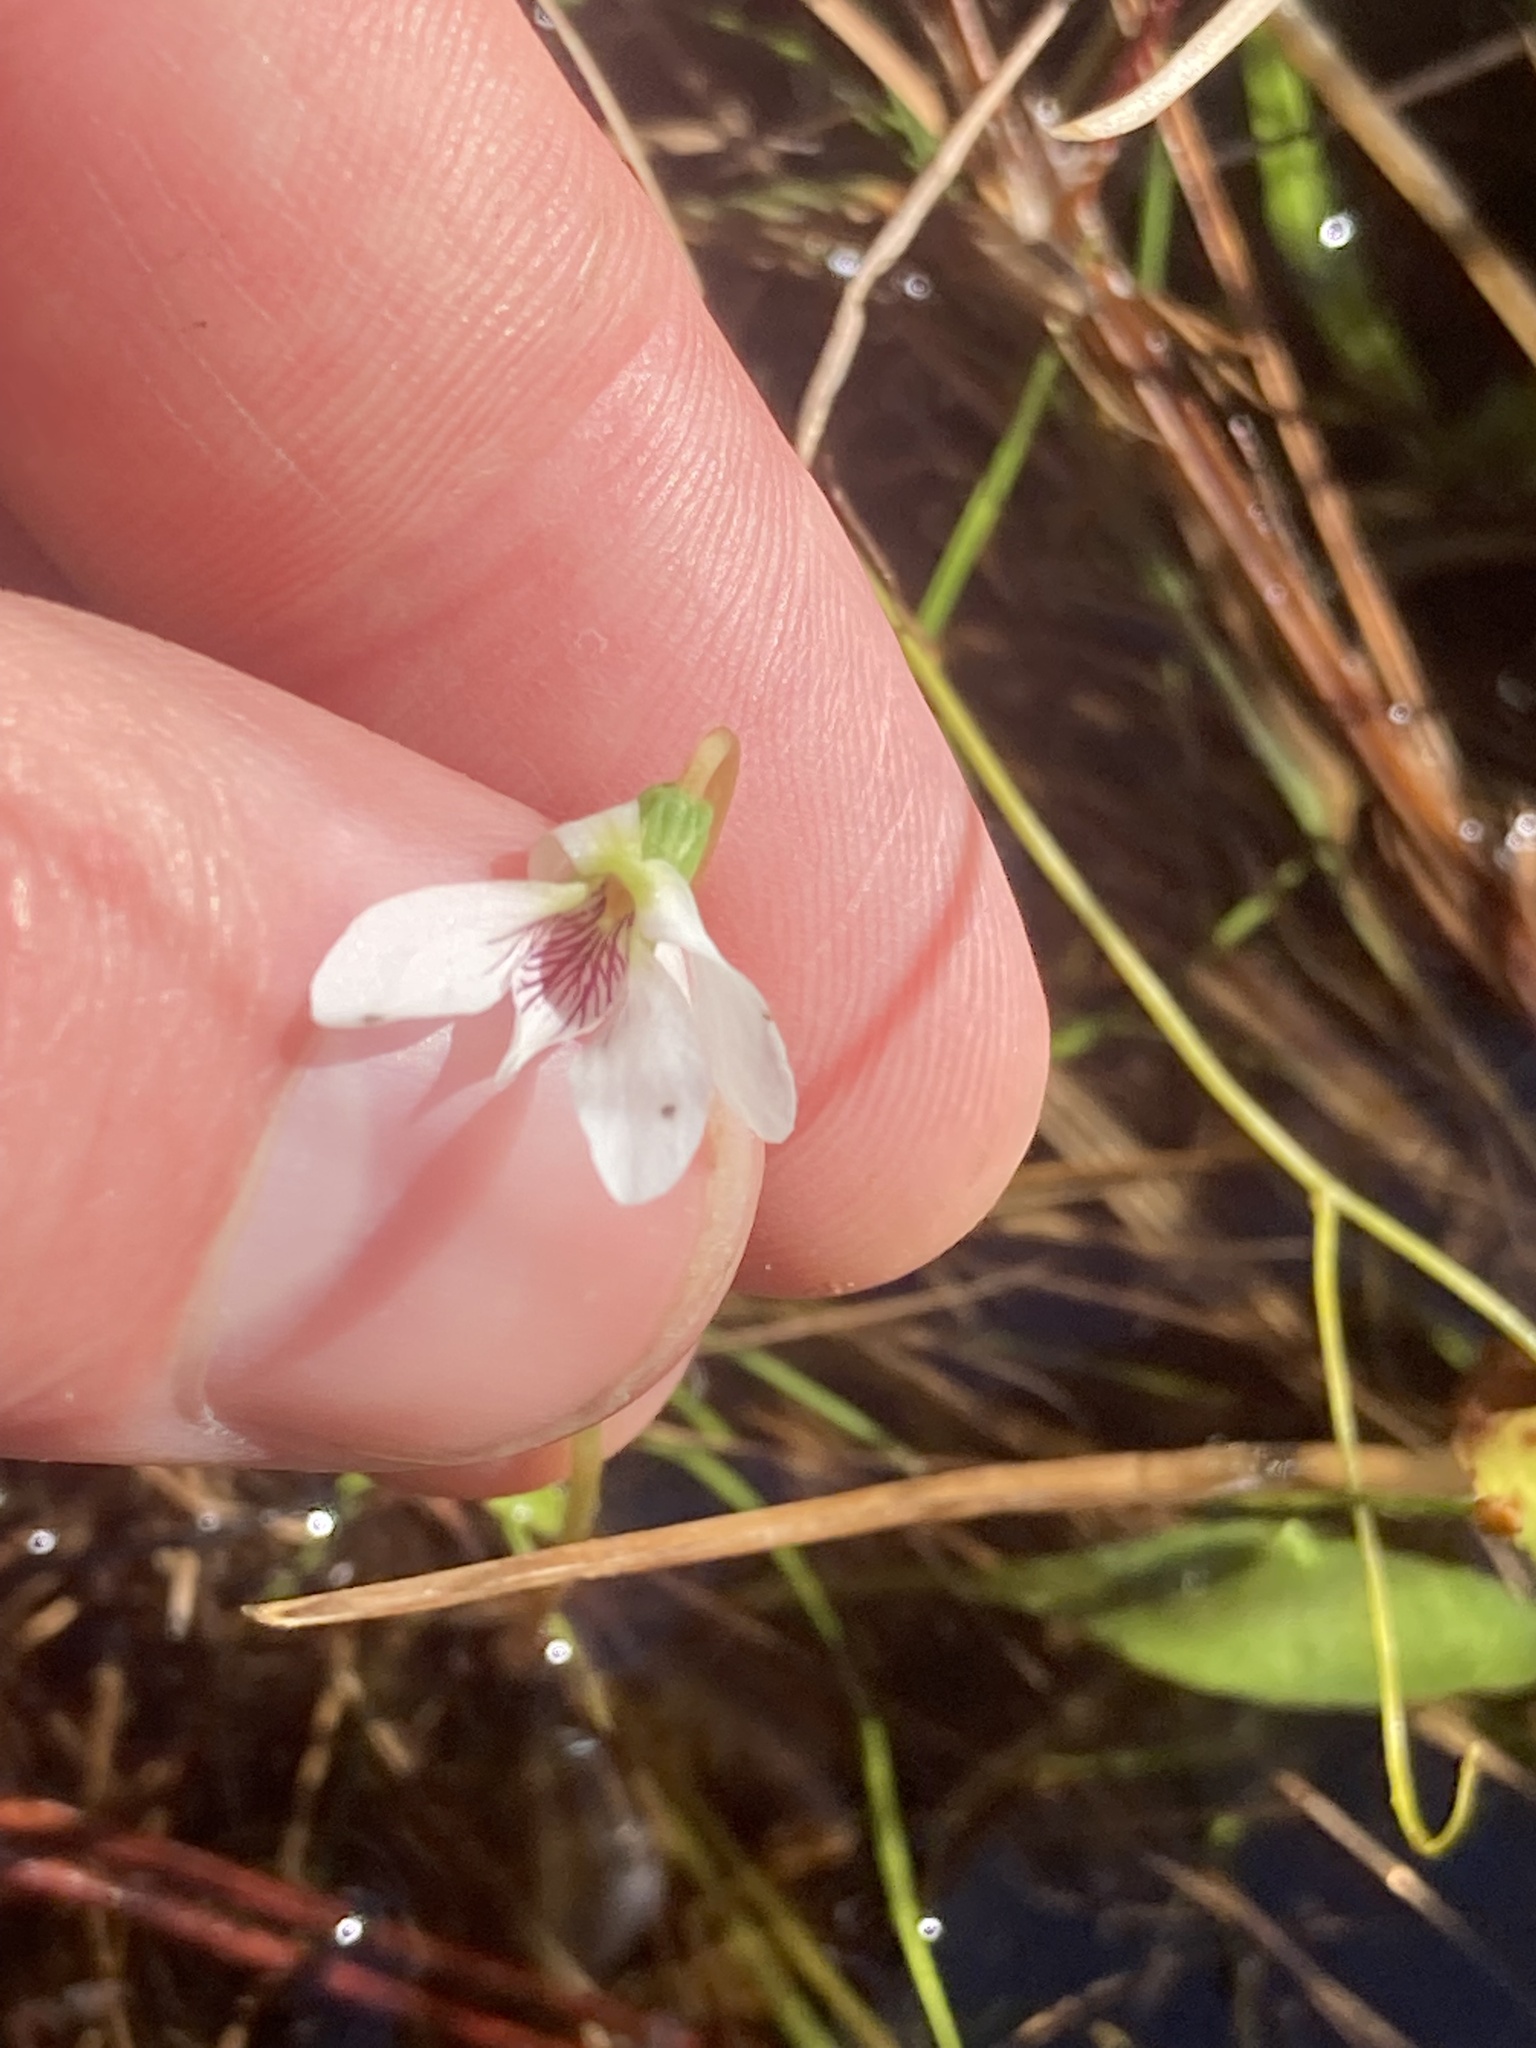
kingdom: Plantae
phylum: Tracheophyta
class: Magnoliopsida
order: Malpighiales
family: Violaceae
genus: Viola
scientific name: Viola vittata
